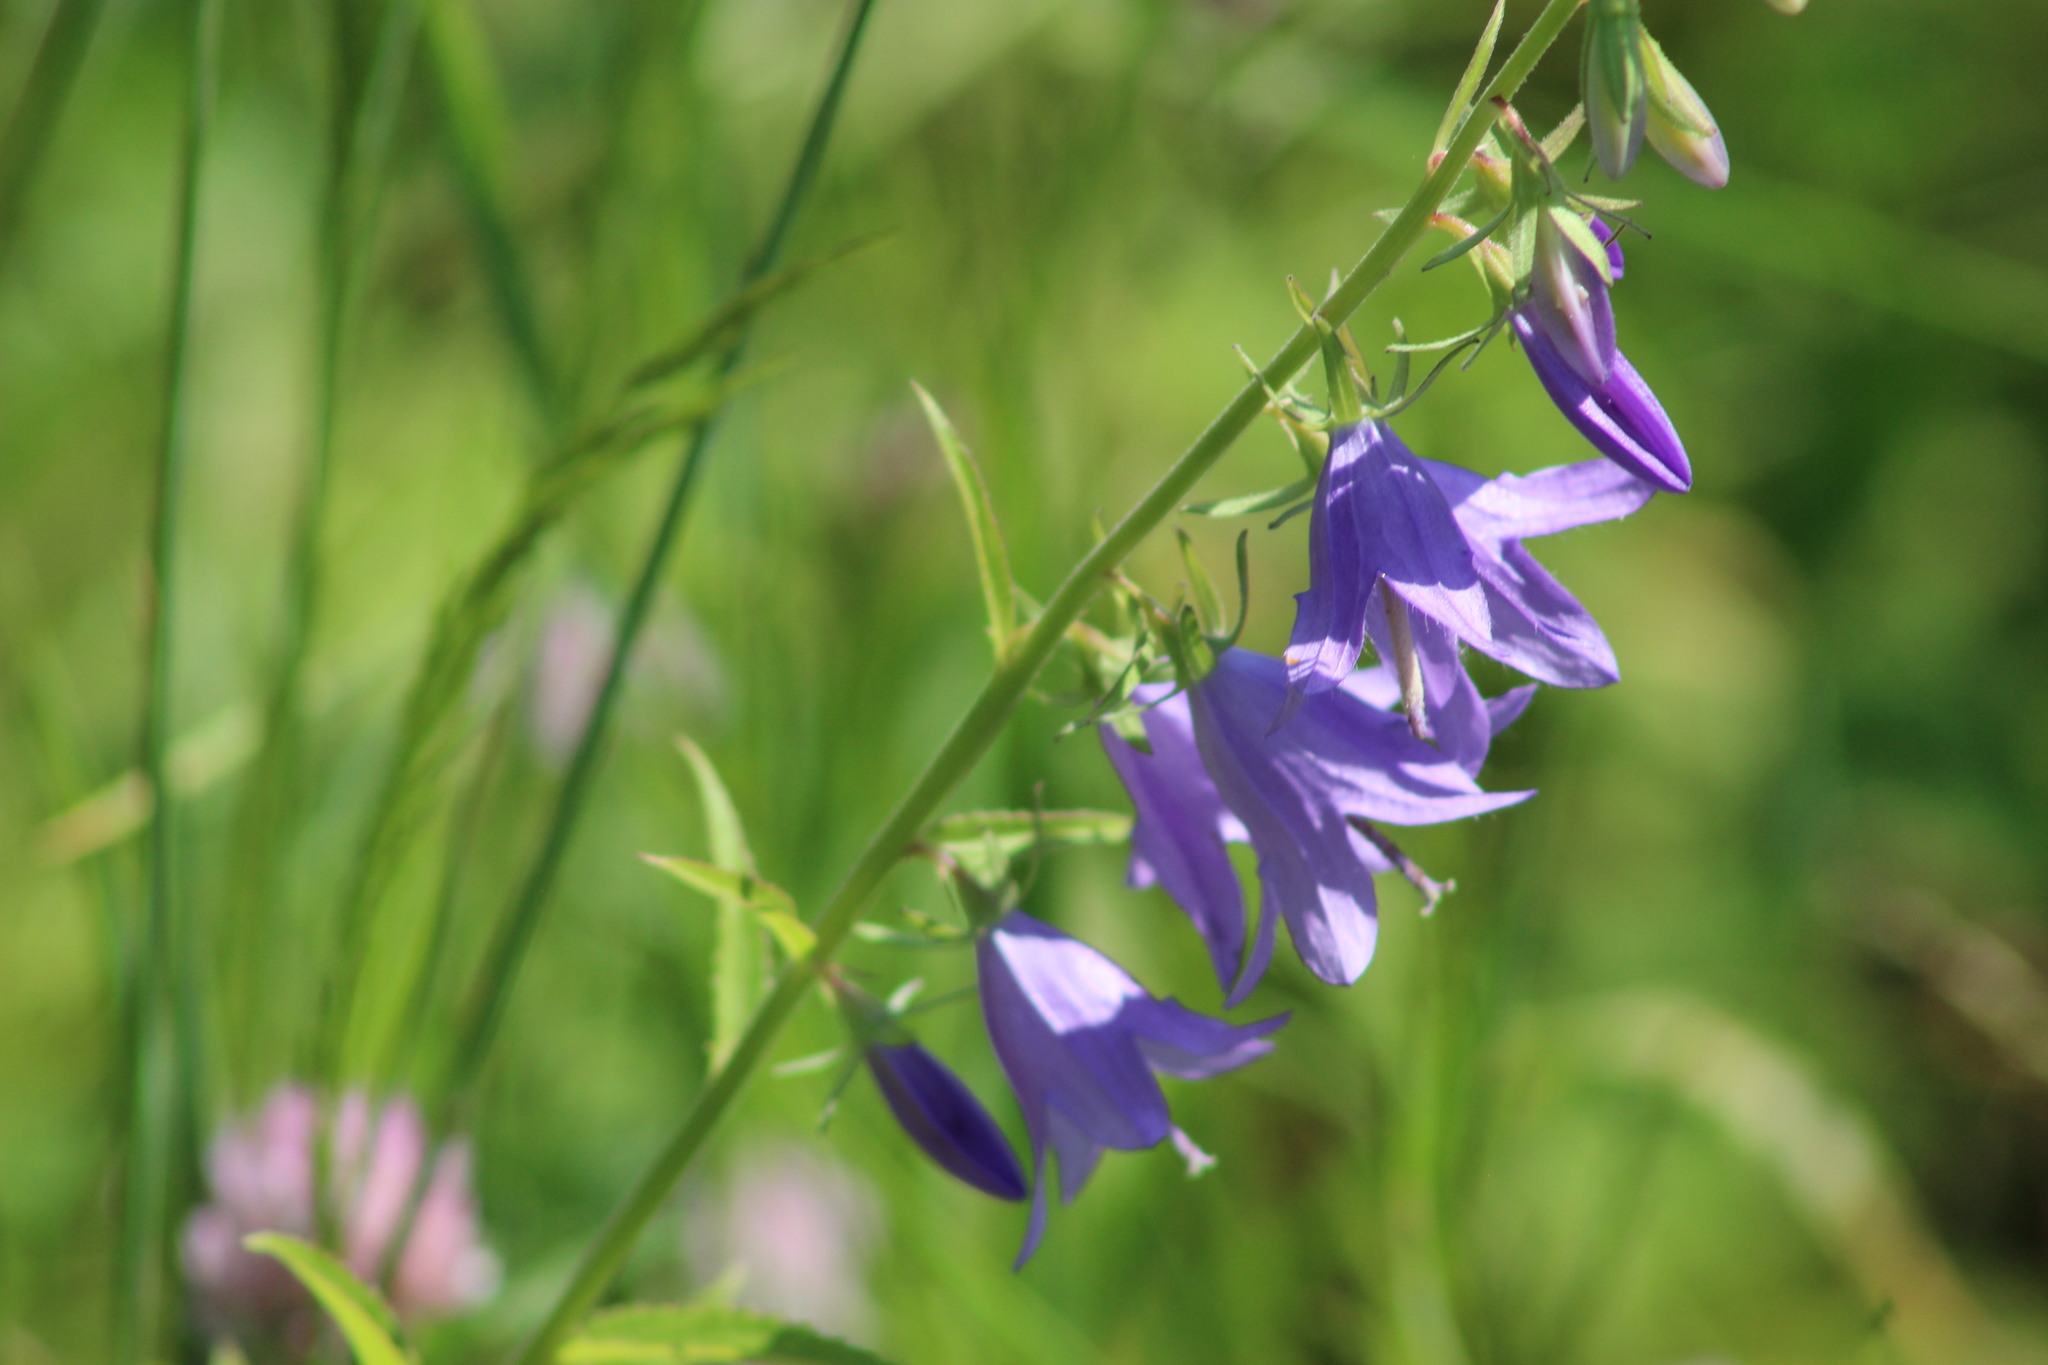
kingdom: Plantae
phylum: Tracheophyta
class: Magnoliopsida
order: Asterales
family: Campanulaceae
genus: Campanula
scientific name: Campanula rapunculoides
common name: Creeping bellflower
